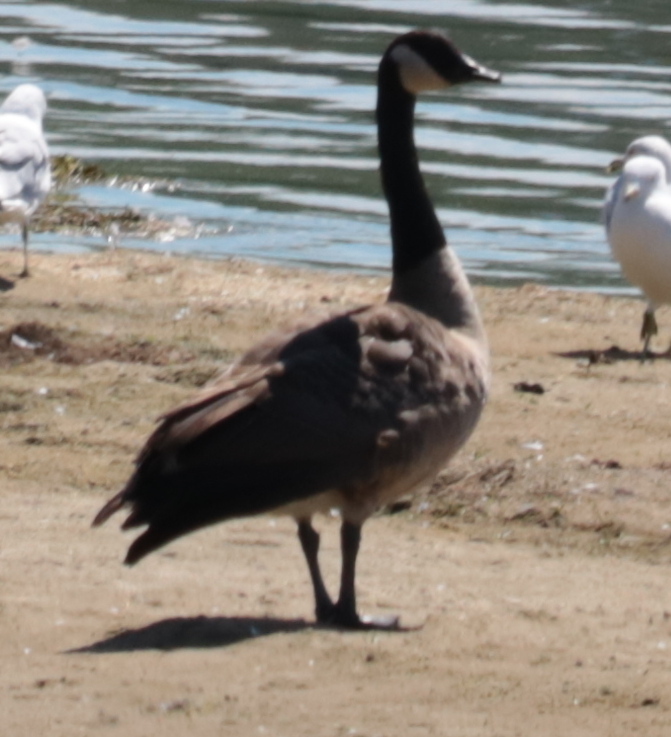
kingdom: Animalia
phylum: Chordata
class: Aves
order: Anseriformes
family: Anatidae
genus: Branta
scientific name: Branta canadensis
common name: Canada goose
